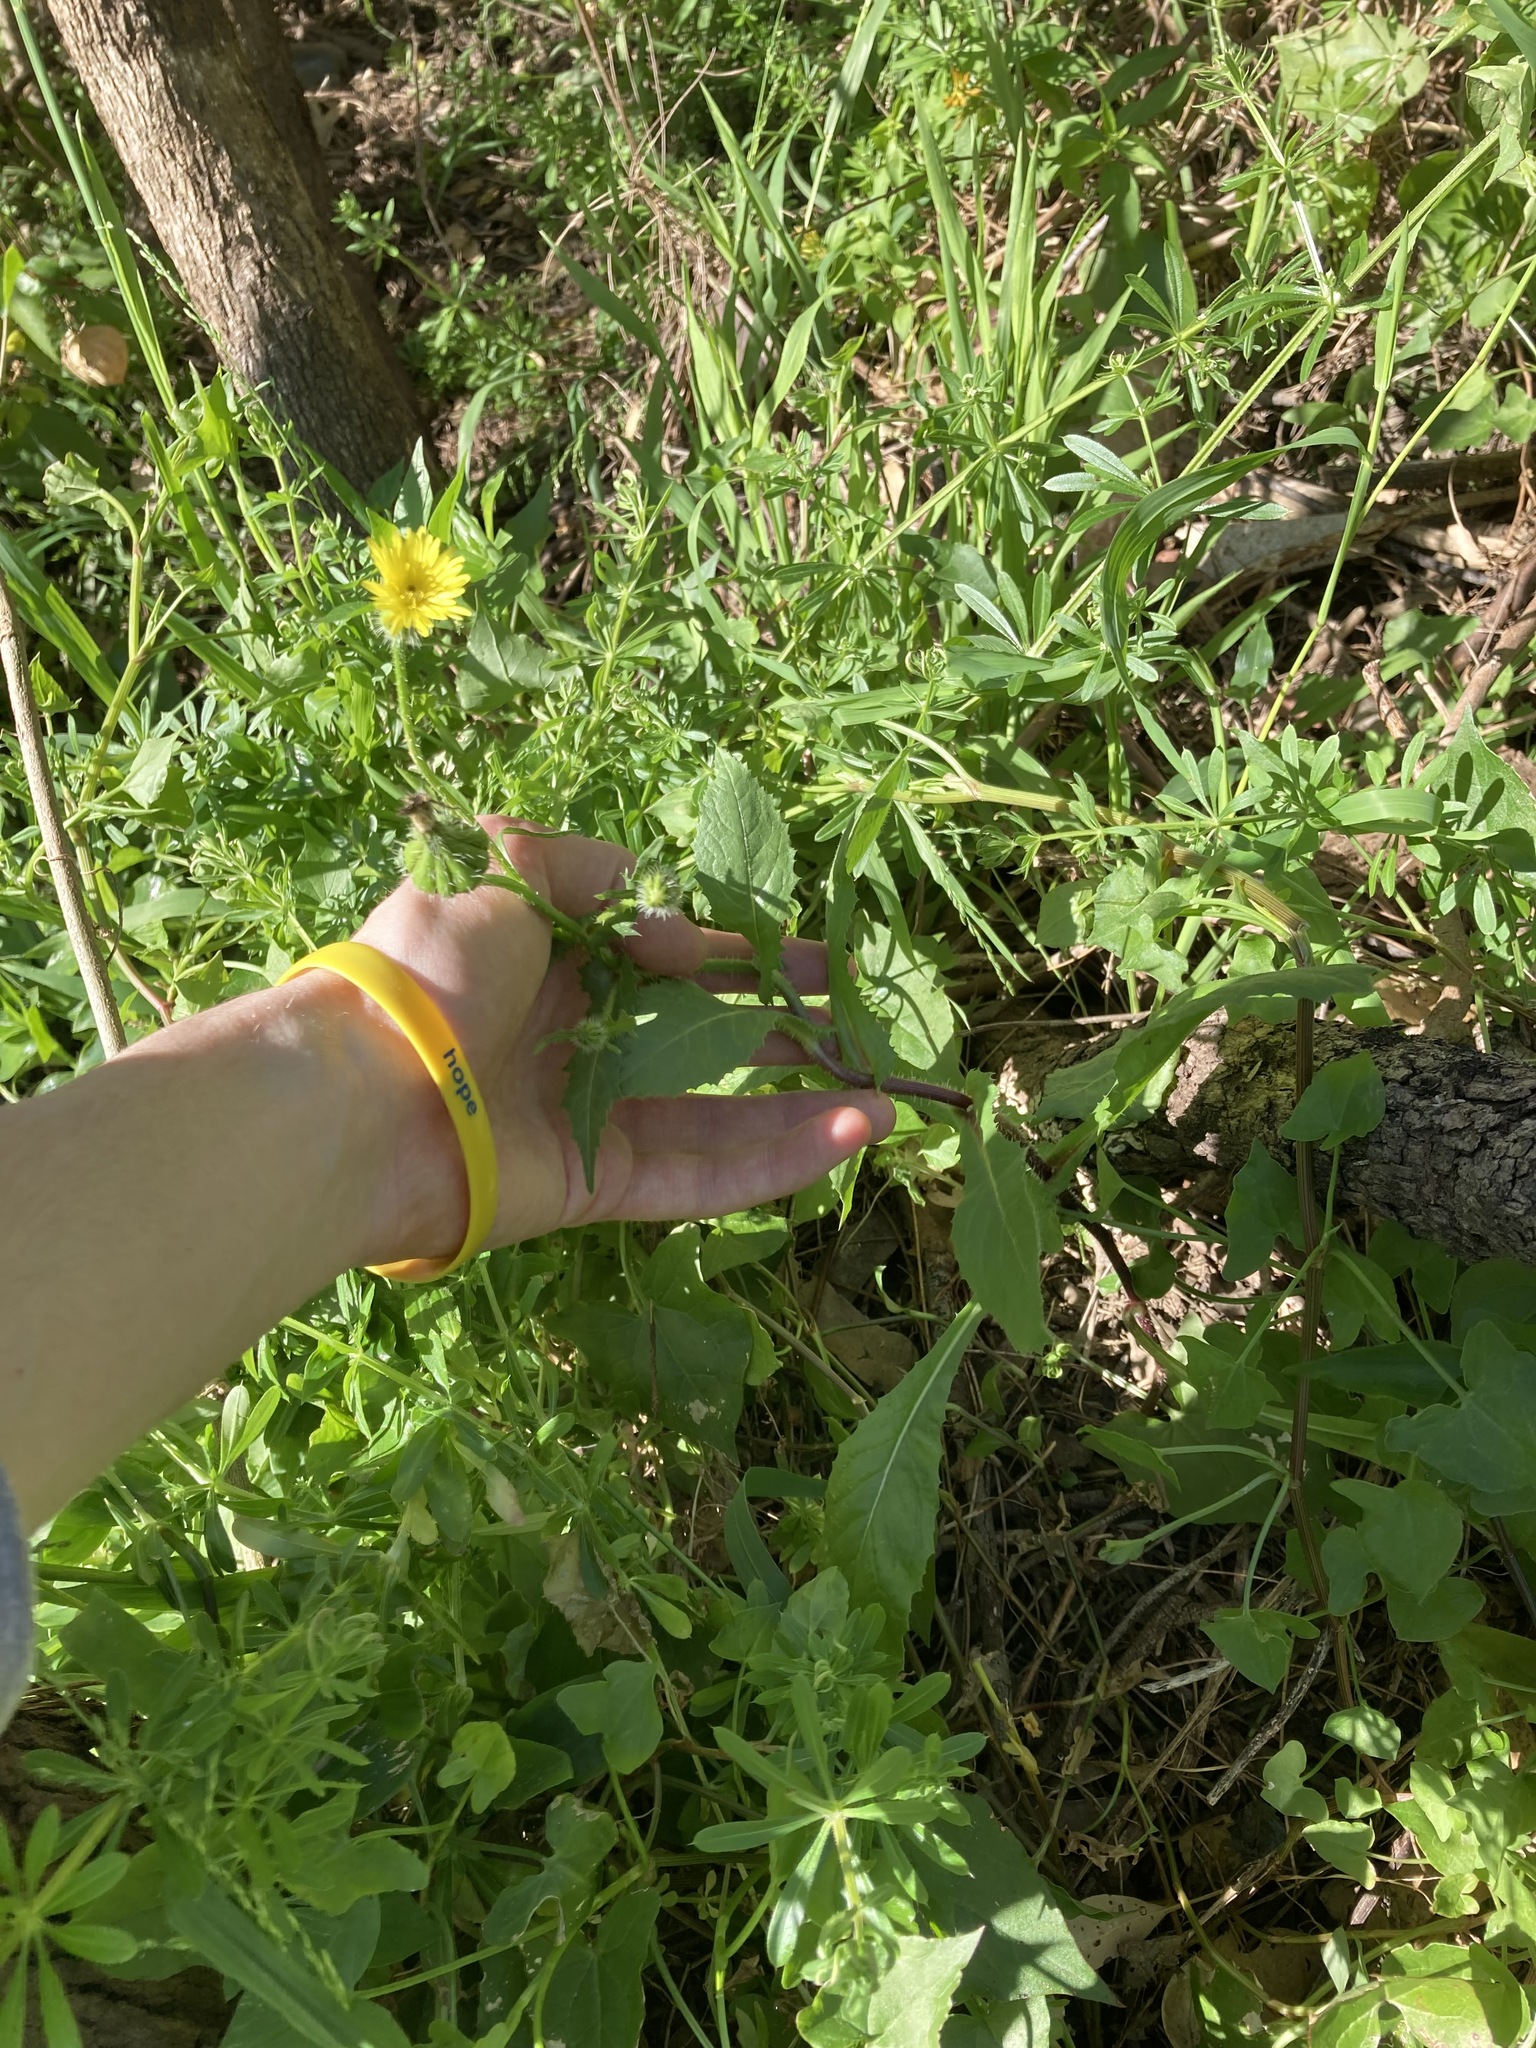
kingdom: Plantae
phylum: Tracheophyta
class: Magnoliopsida
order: Asterales
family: Asteraceae
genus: Urospermum
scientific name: Urospermum picroides
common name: False hawkbit
